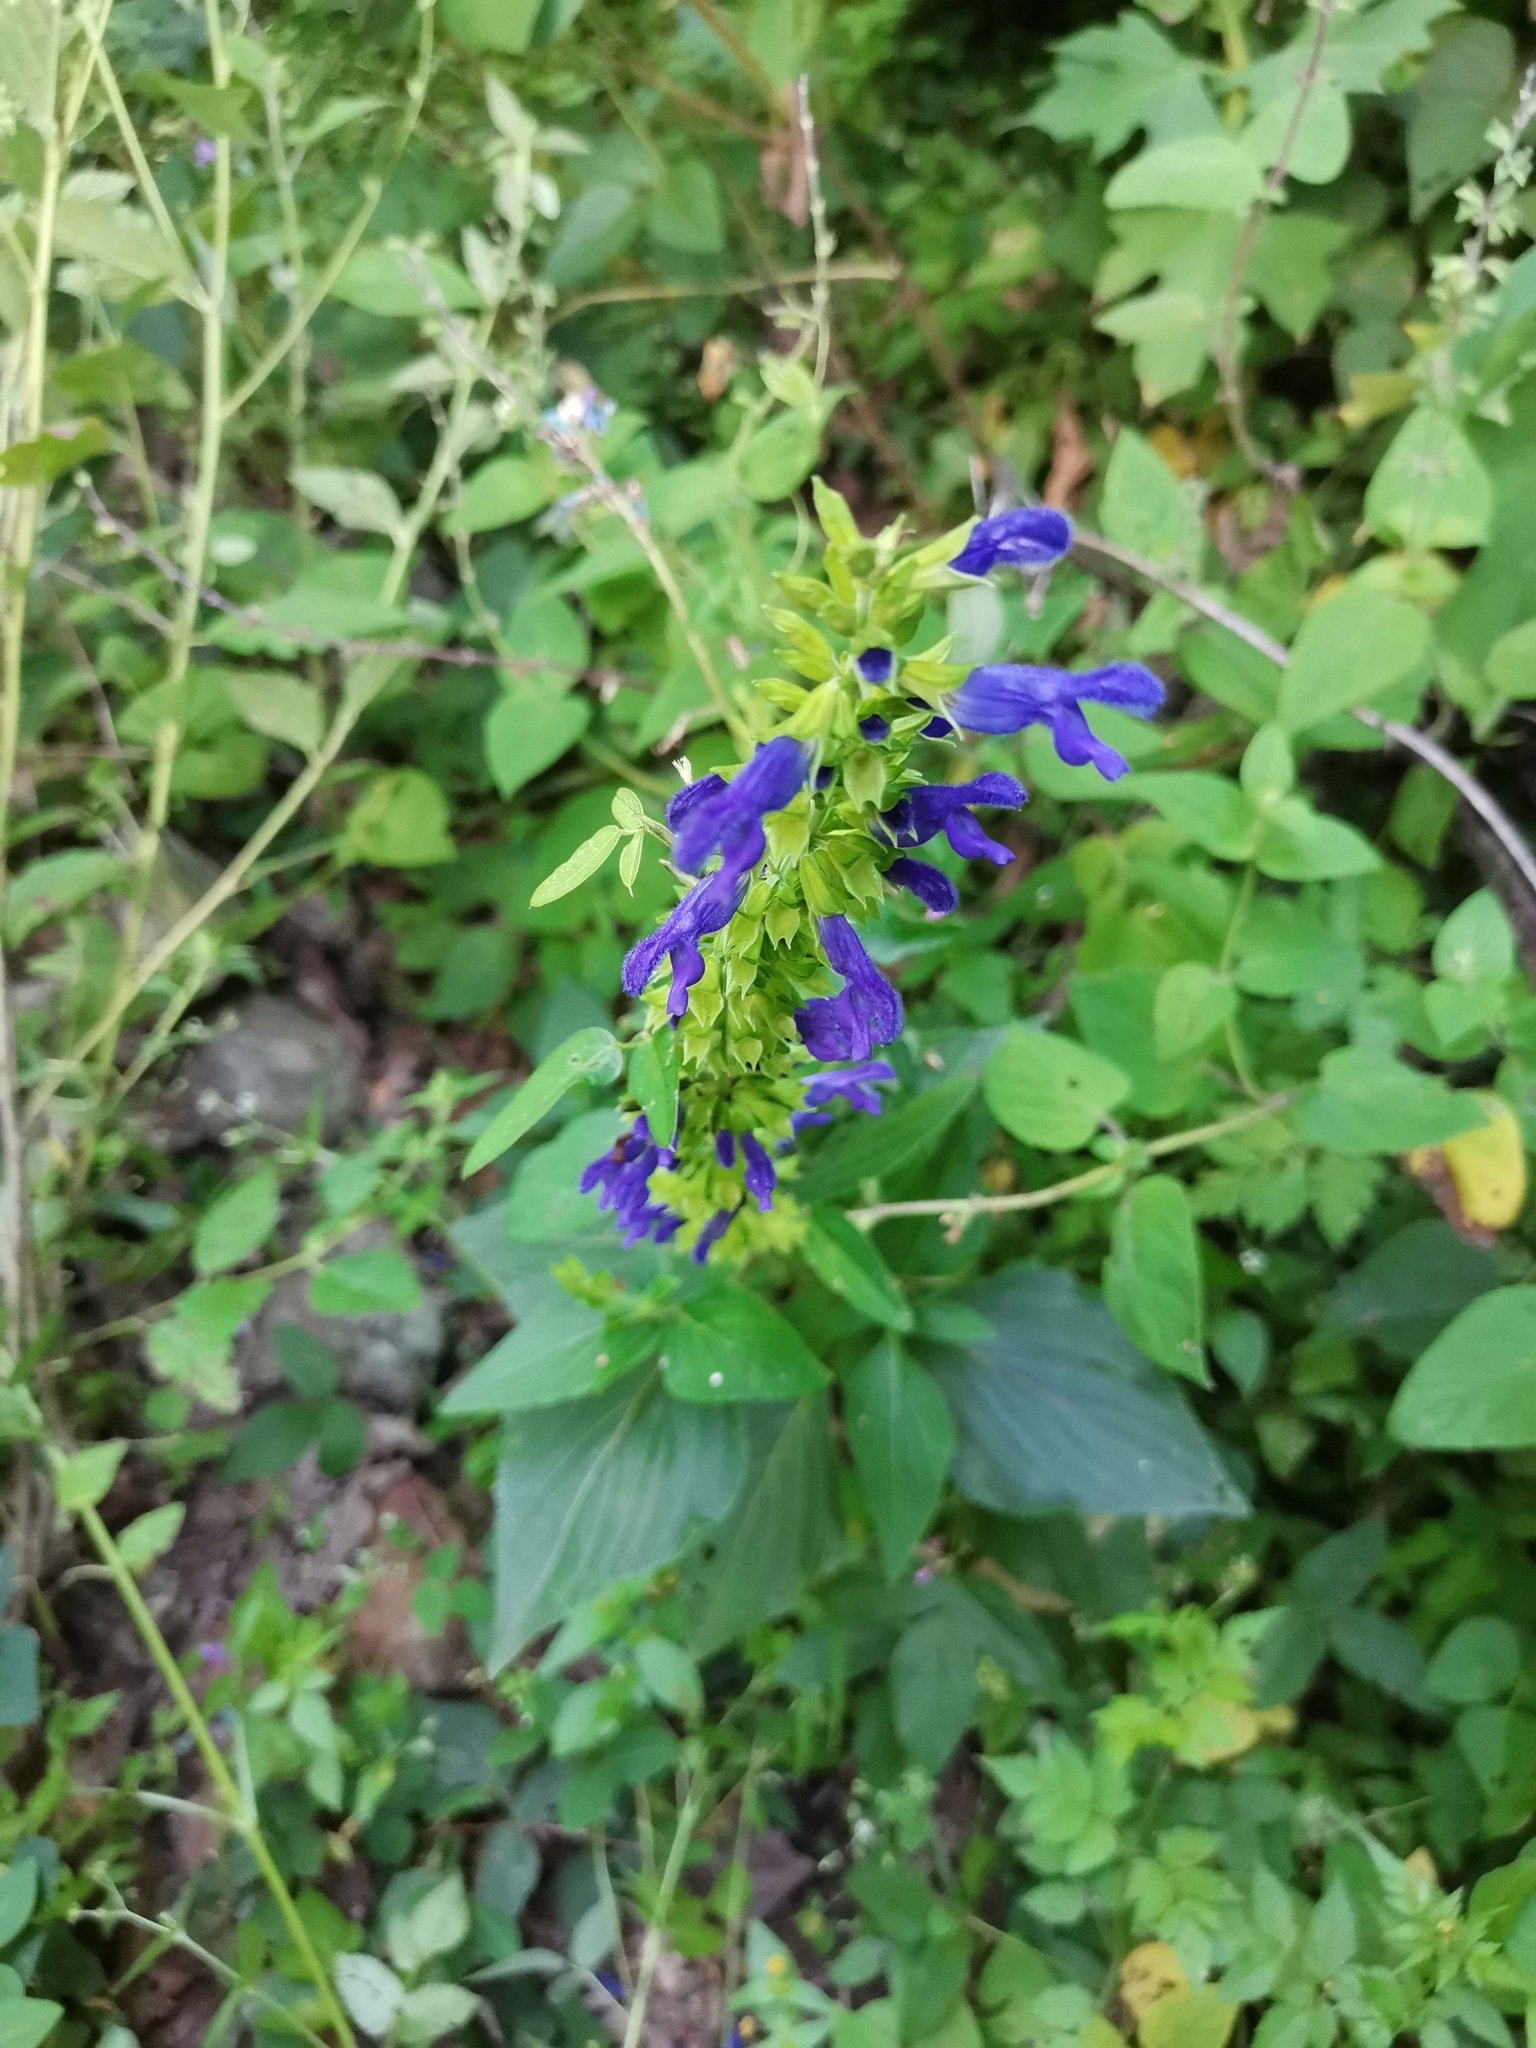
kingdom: Plantae
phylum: Tracheophyta
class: Magnoliopsida
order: Lamiales
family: Lamiaceae
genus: Salvia
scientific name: Salvia mexicana
